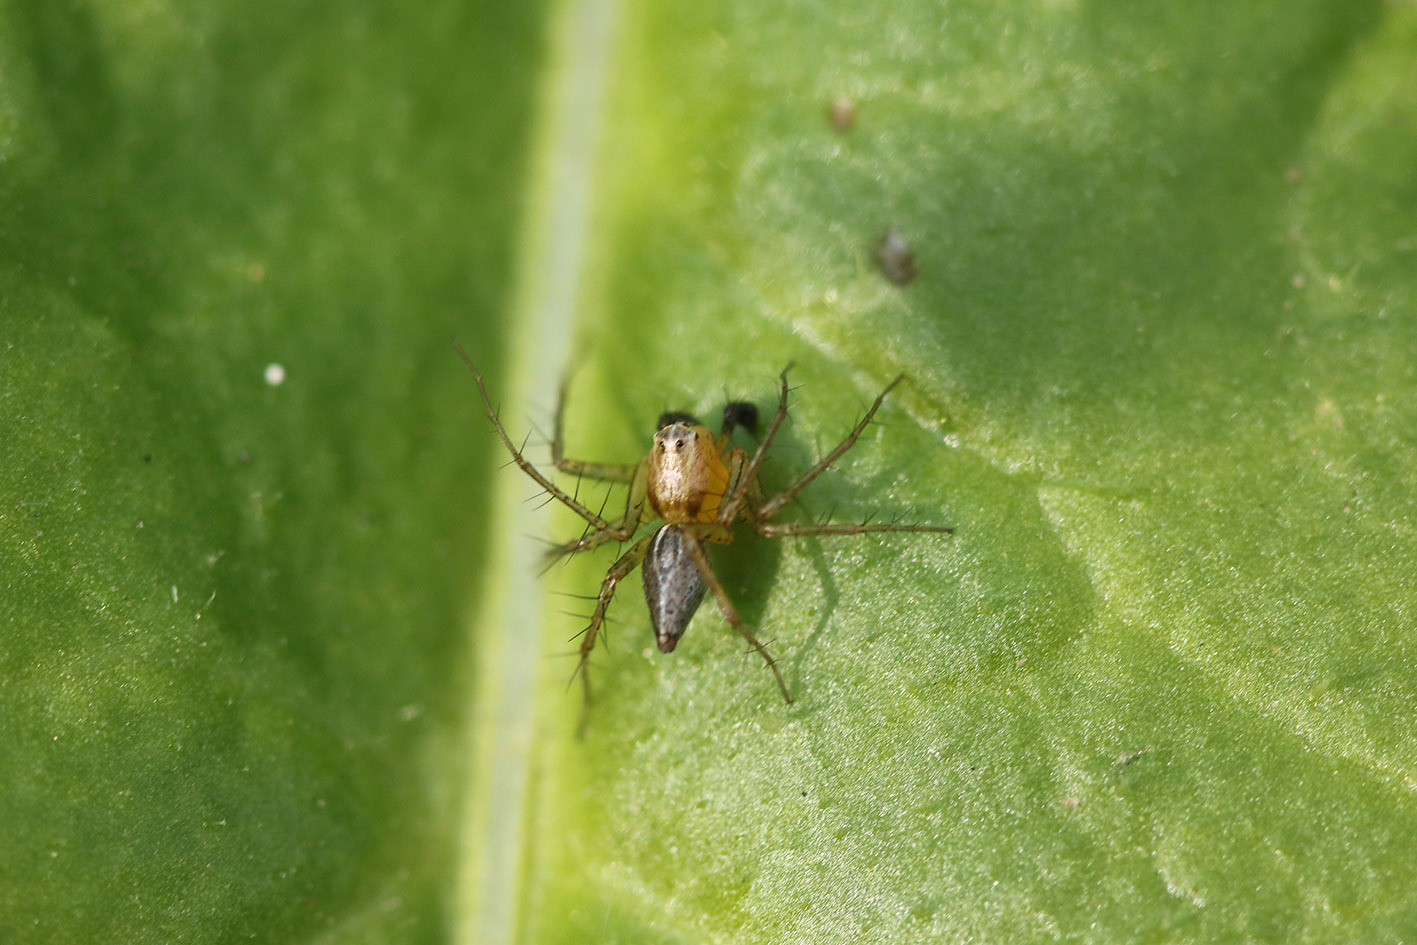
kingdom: Animalia
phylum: Arthropoda
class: Arachnida
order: Araneae
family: Oxyopidae
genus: Oxyopes
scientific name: Oxyopes salticus
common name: Lynx spiders
